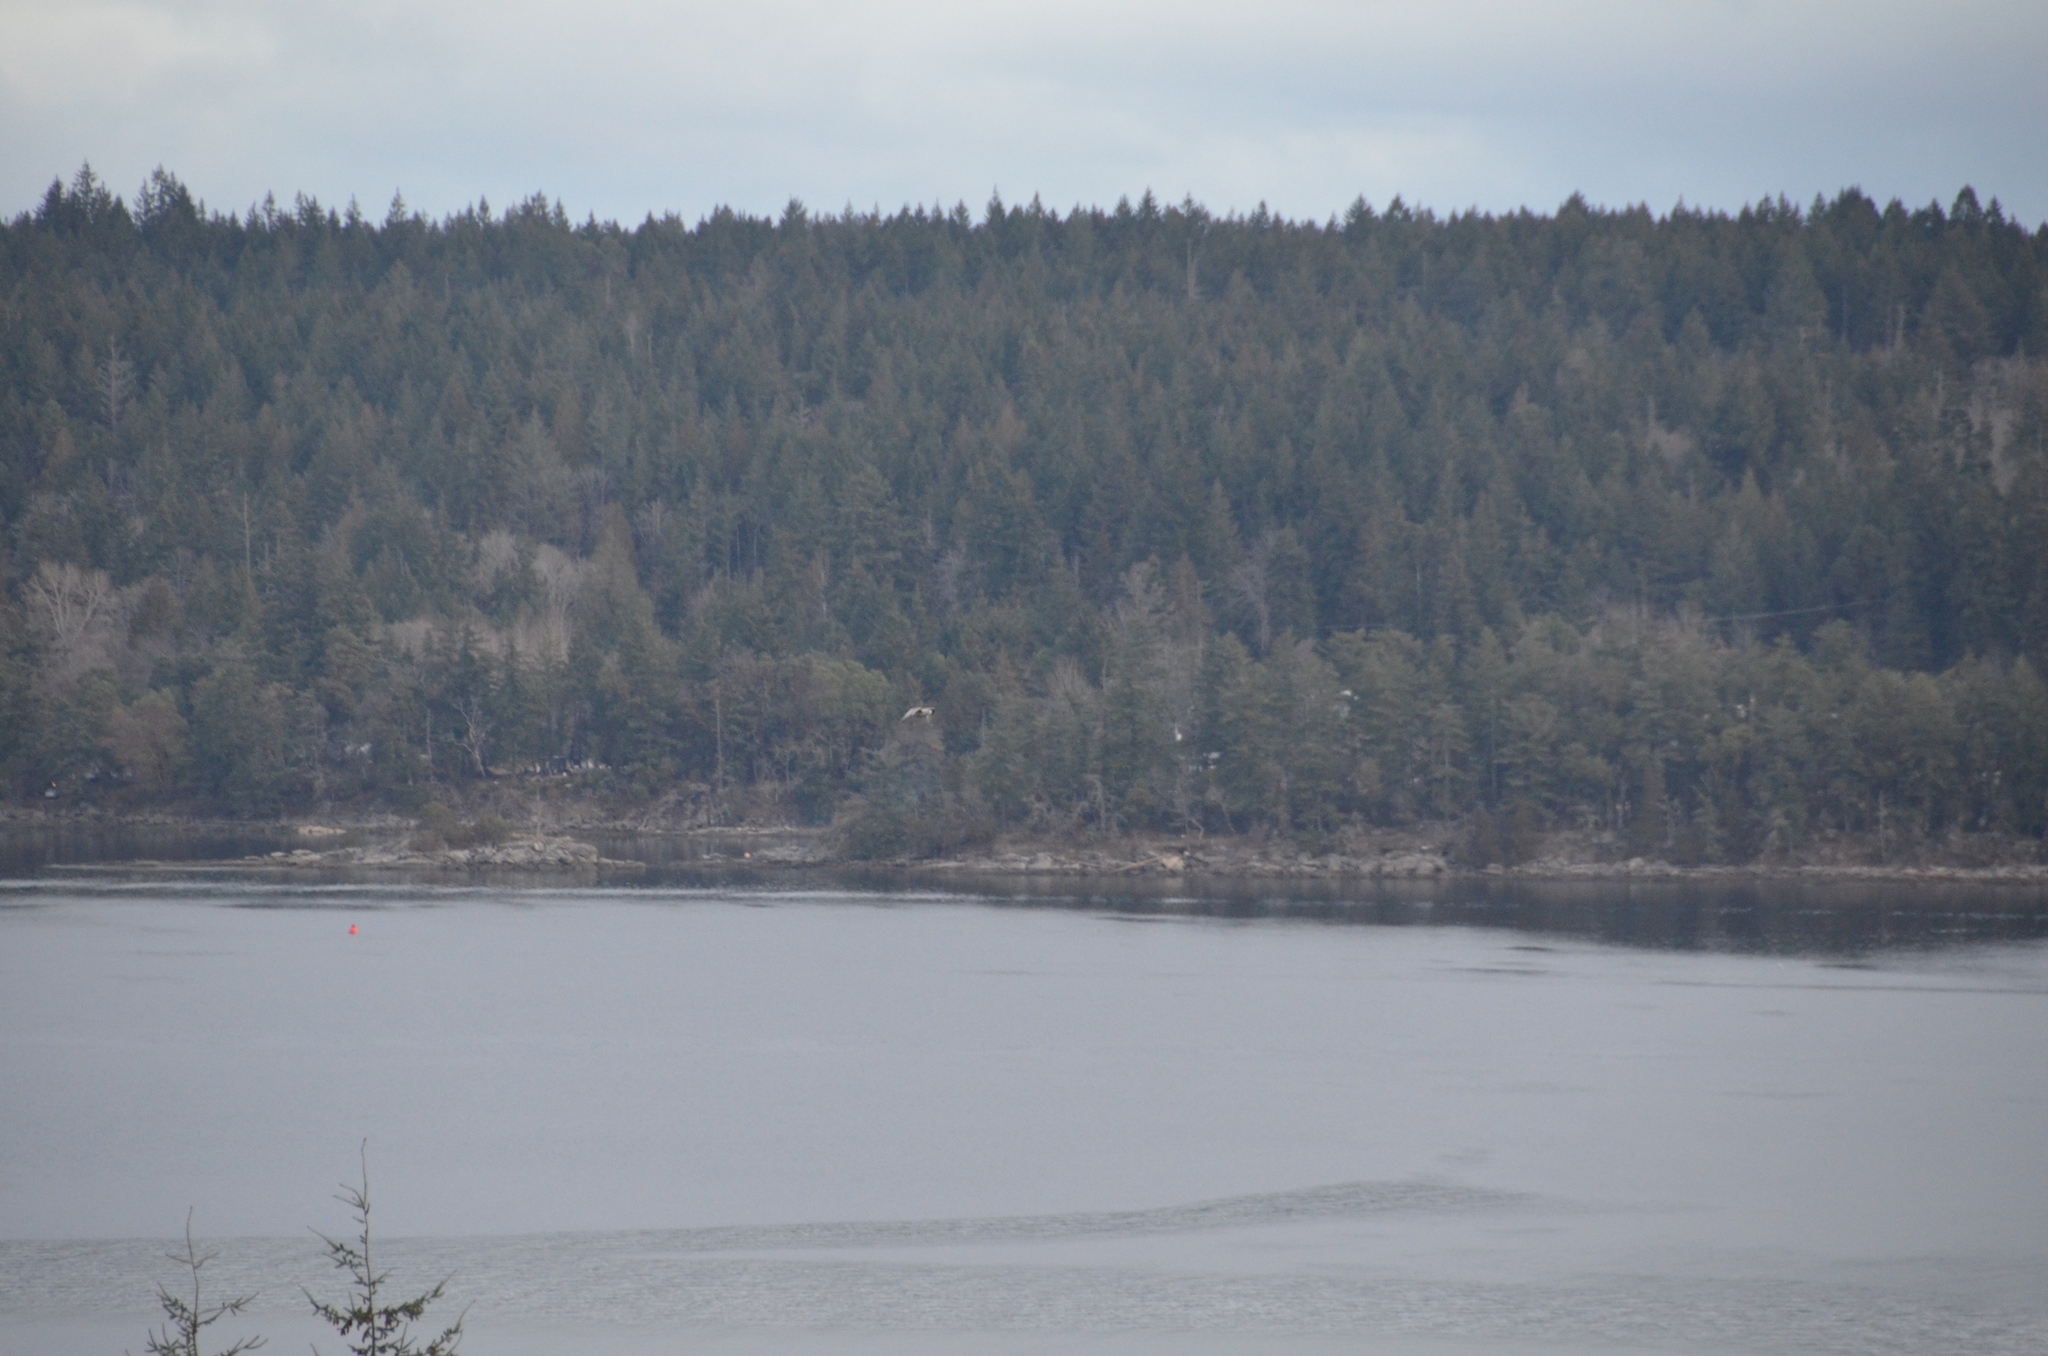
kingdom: Animalia
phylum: Chordata
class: Aves
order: Charadriiformes
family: Laridae
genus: Larus
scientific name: Larus
